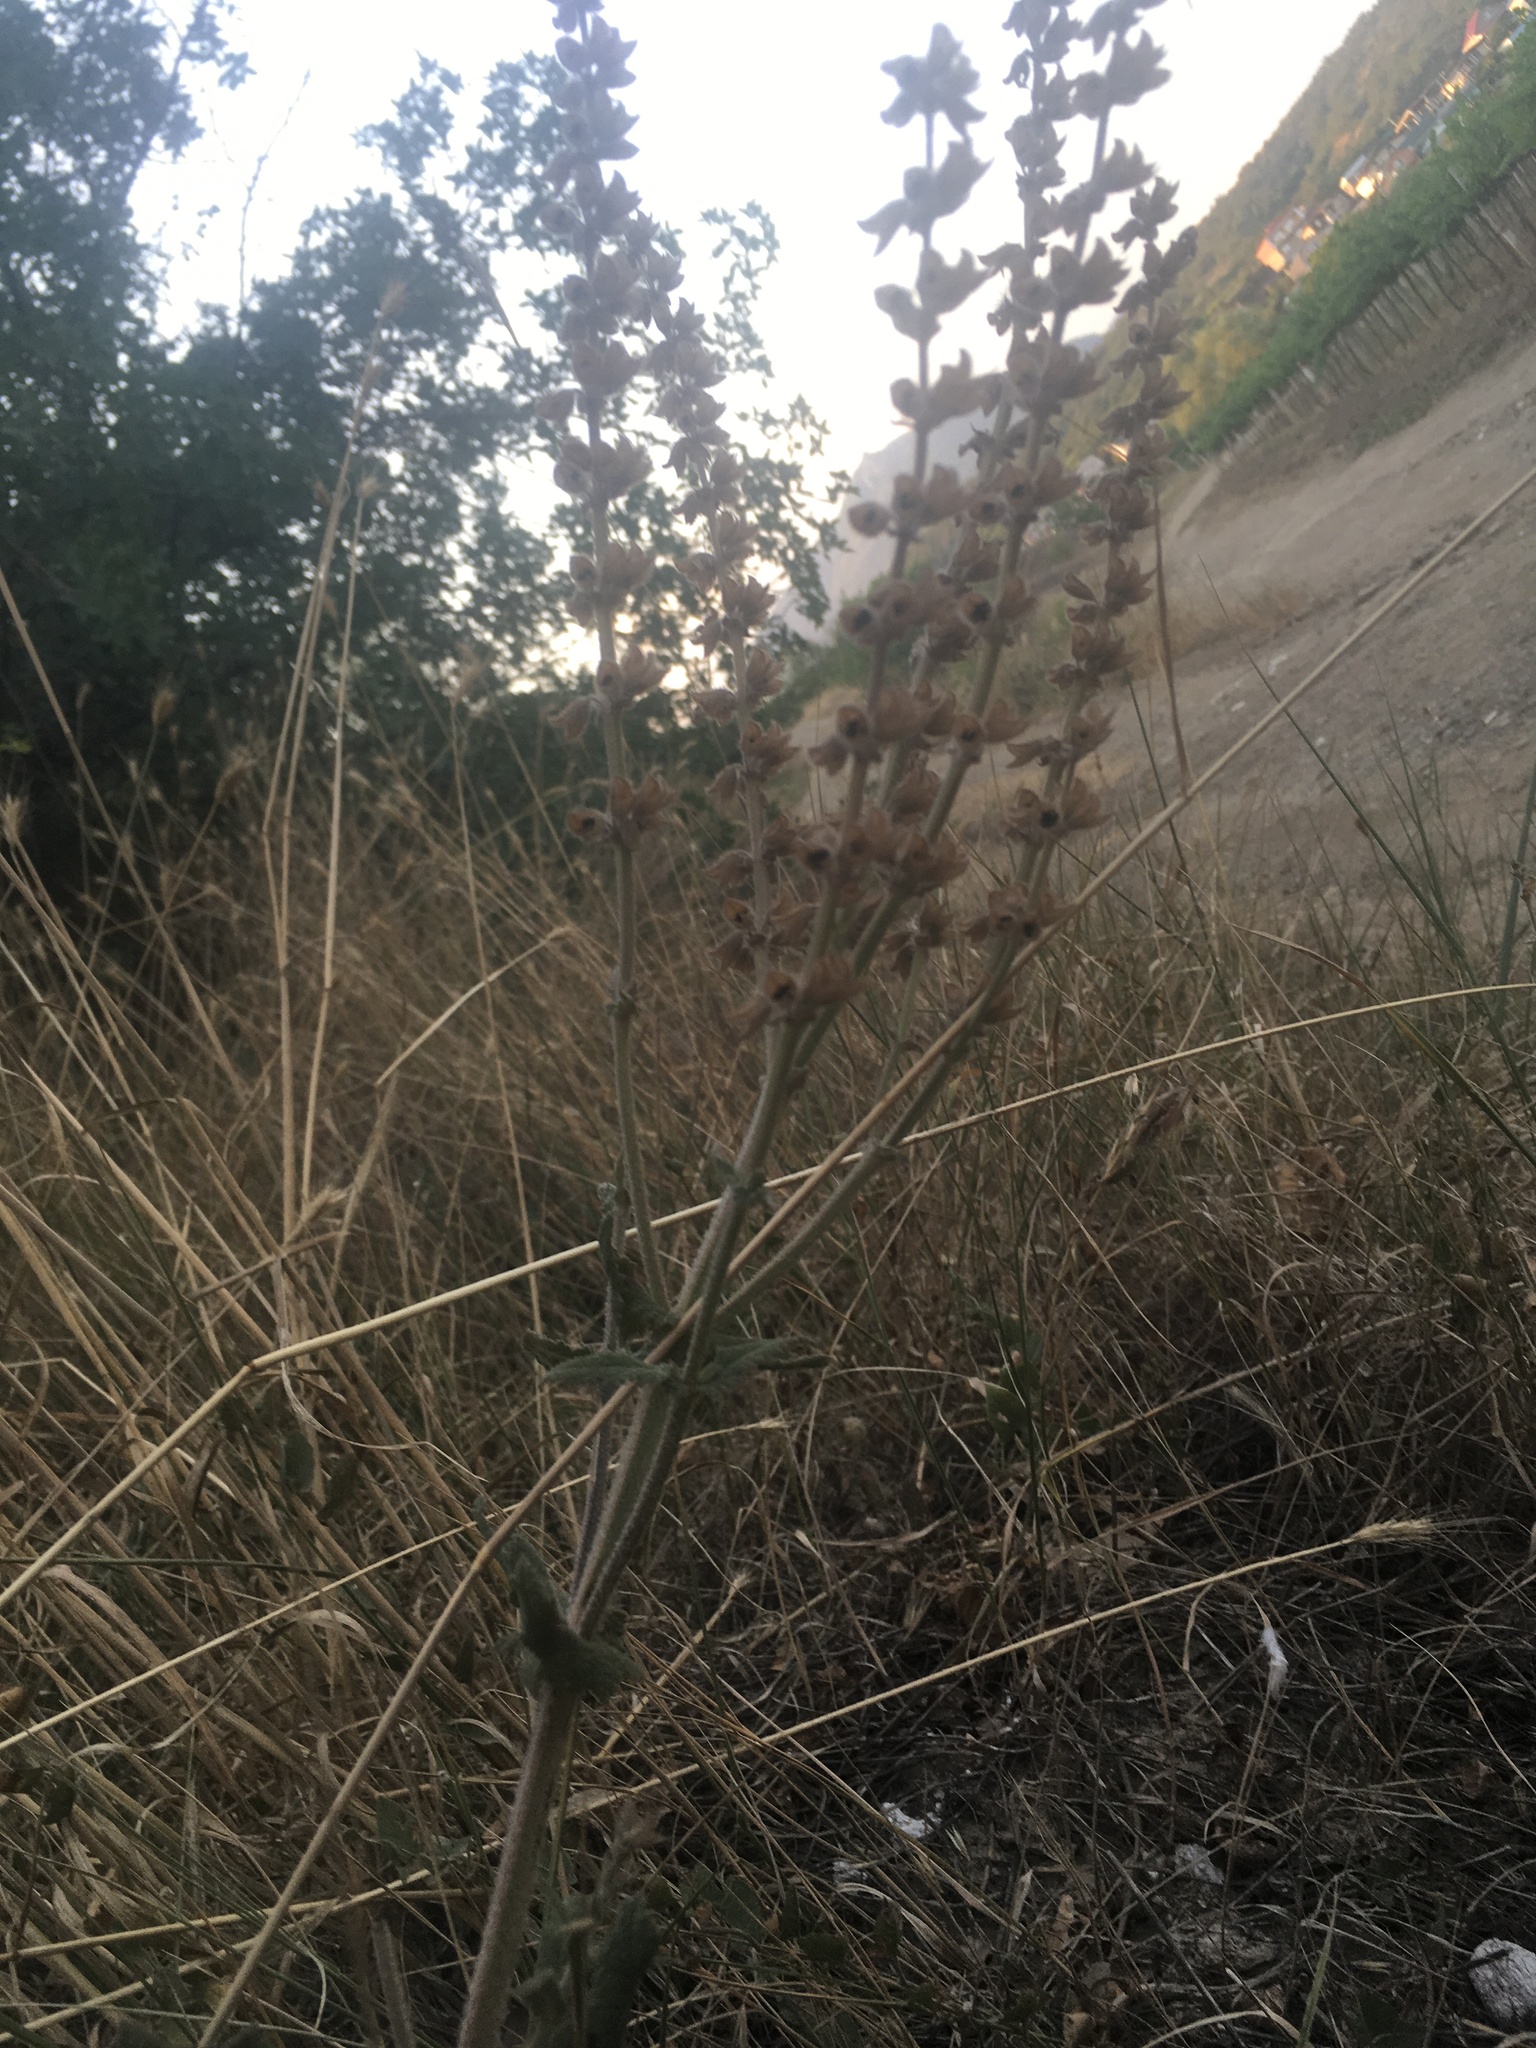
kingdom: Plantae
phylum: Tracheophyta
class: Magnoliopsida
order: Lamiales
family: Lamiaceae
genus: Salvia
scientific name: Salvia virgata
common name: Wand sage
